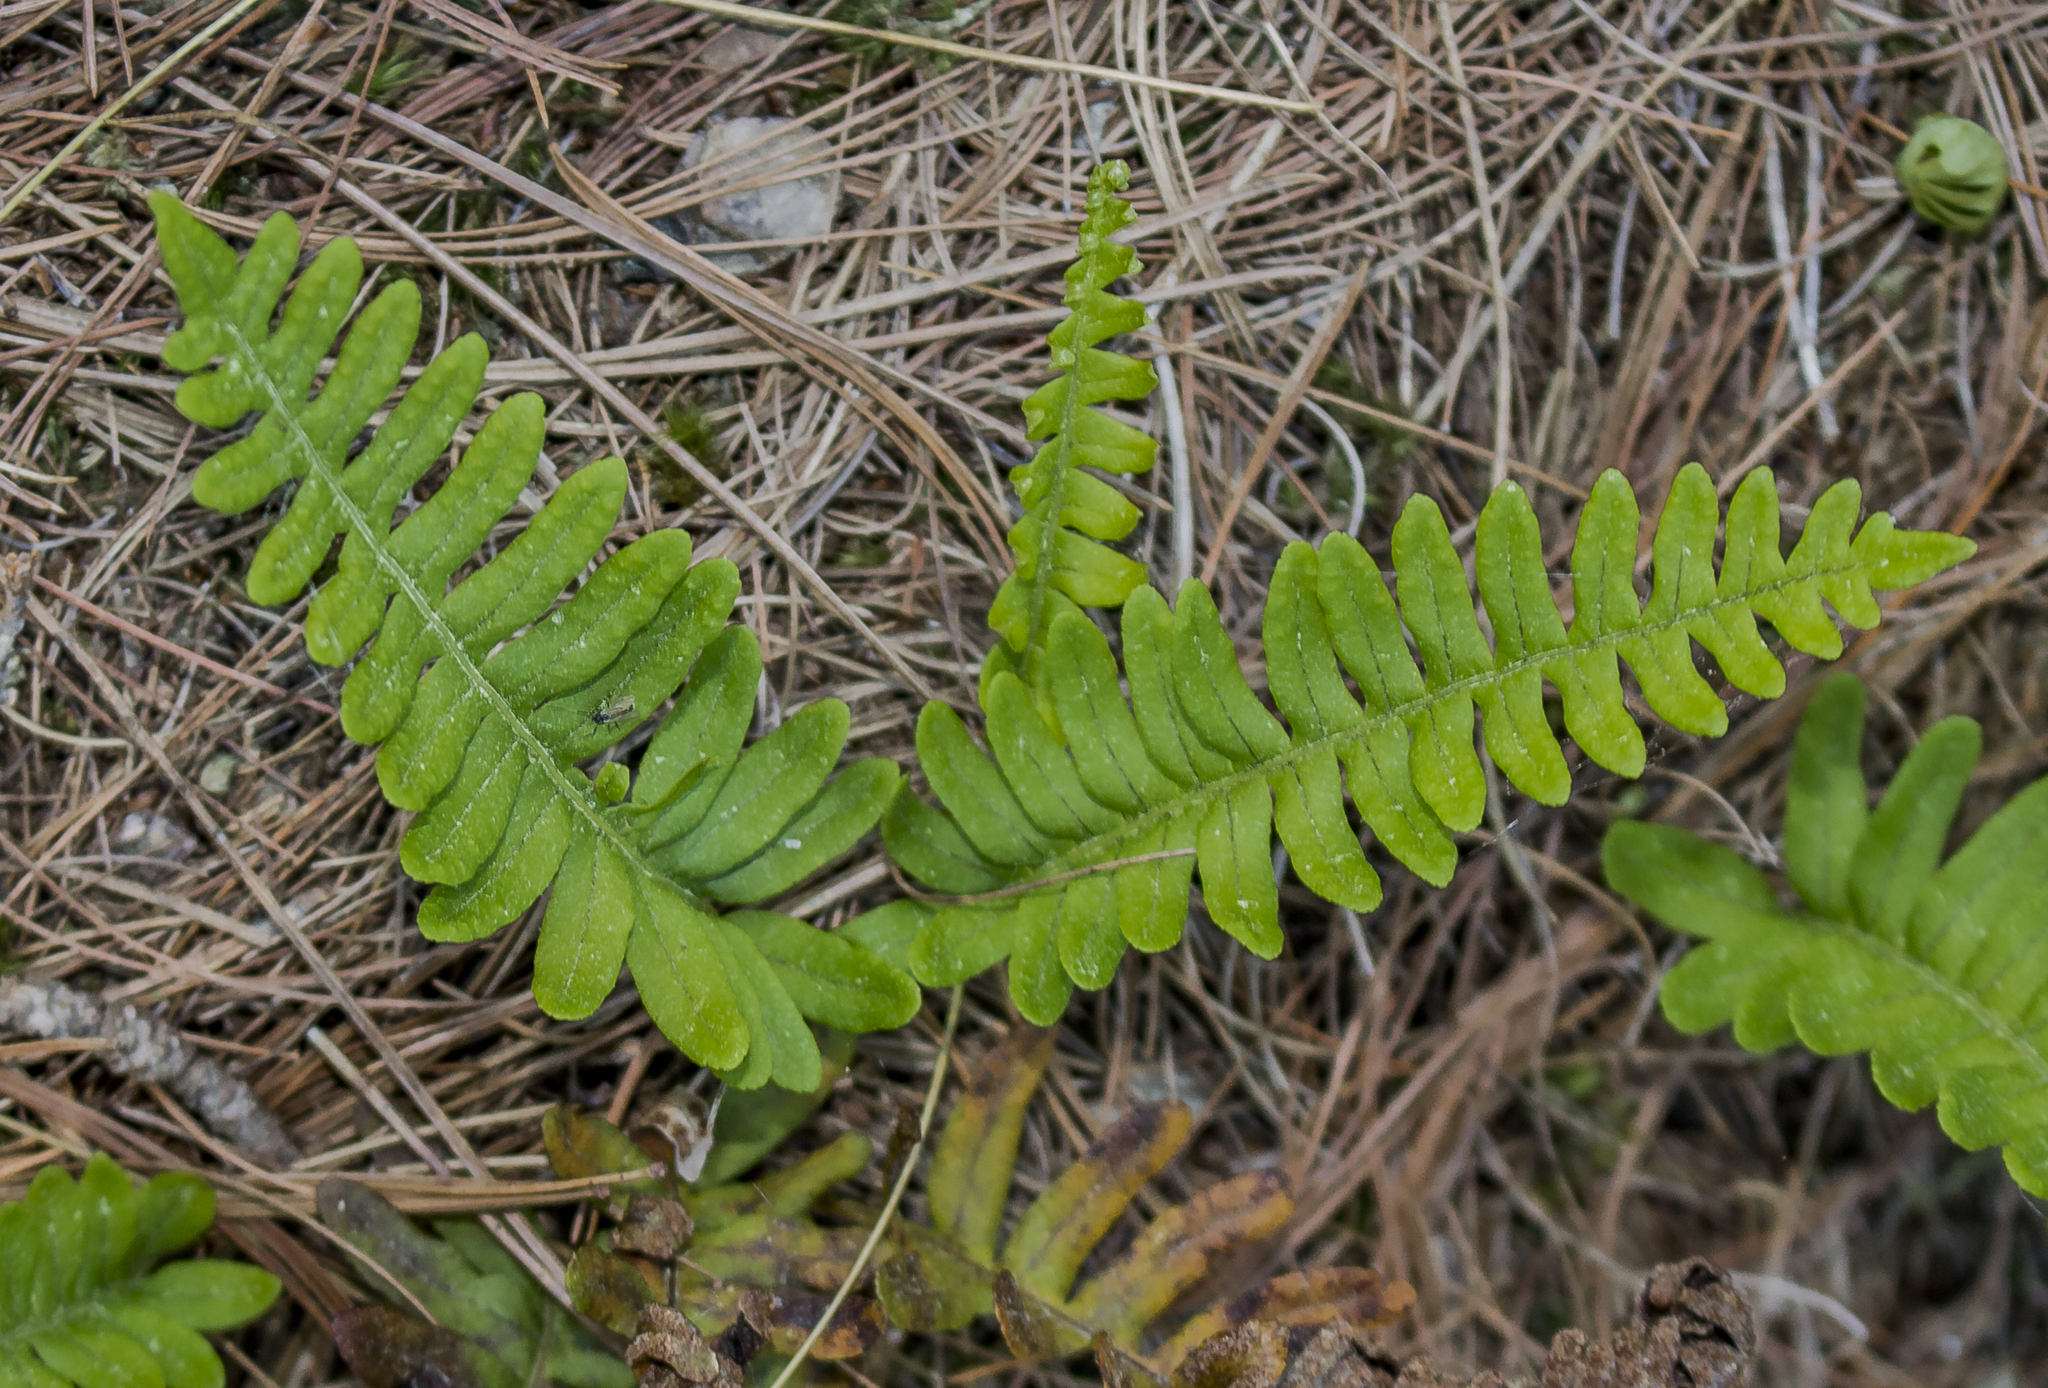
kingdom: Plantae
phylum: Tracheophyta
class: Polypodiopsida
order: Polypodiales
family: Polypodiaceae
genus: Polypodium
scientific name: Polypodium virginianum
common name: American wall fern
